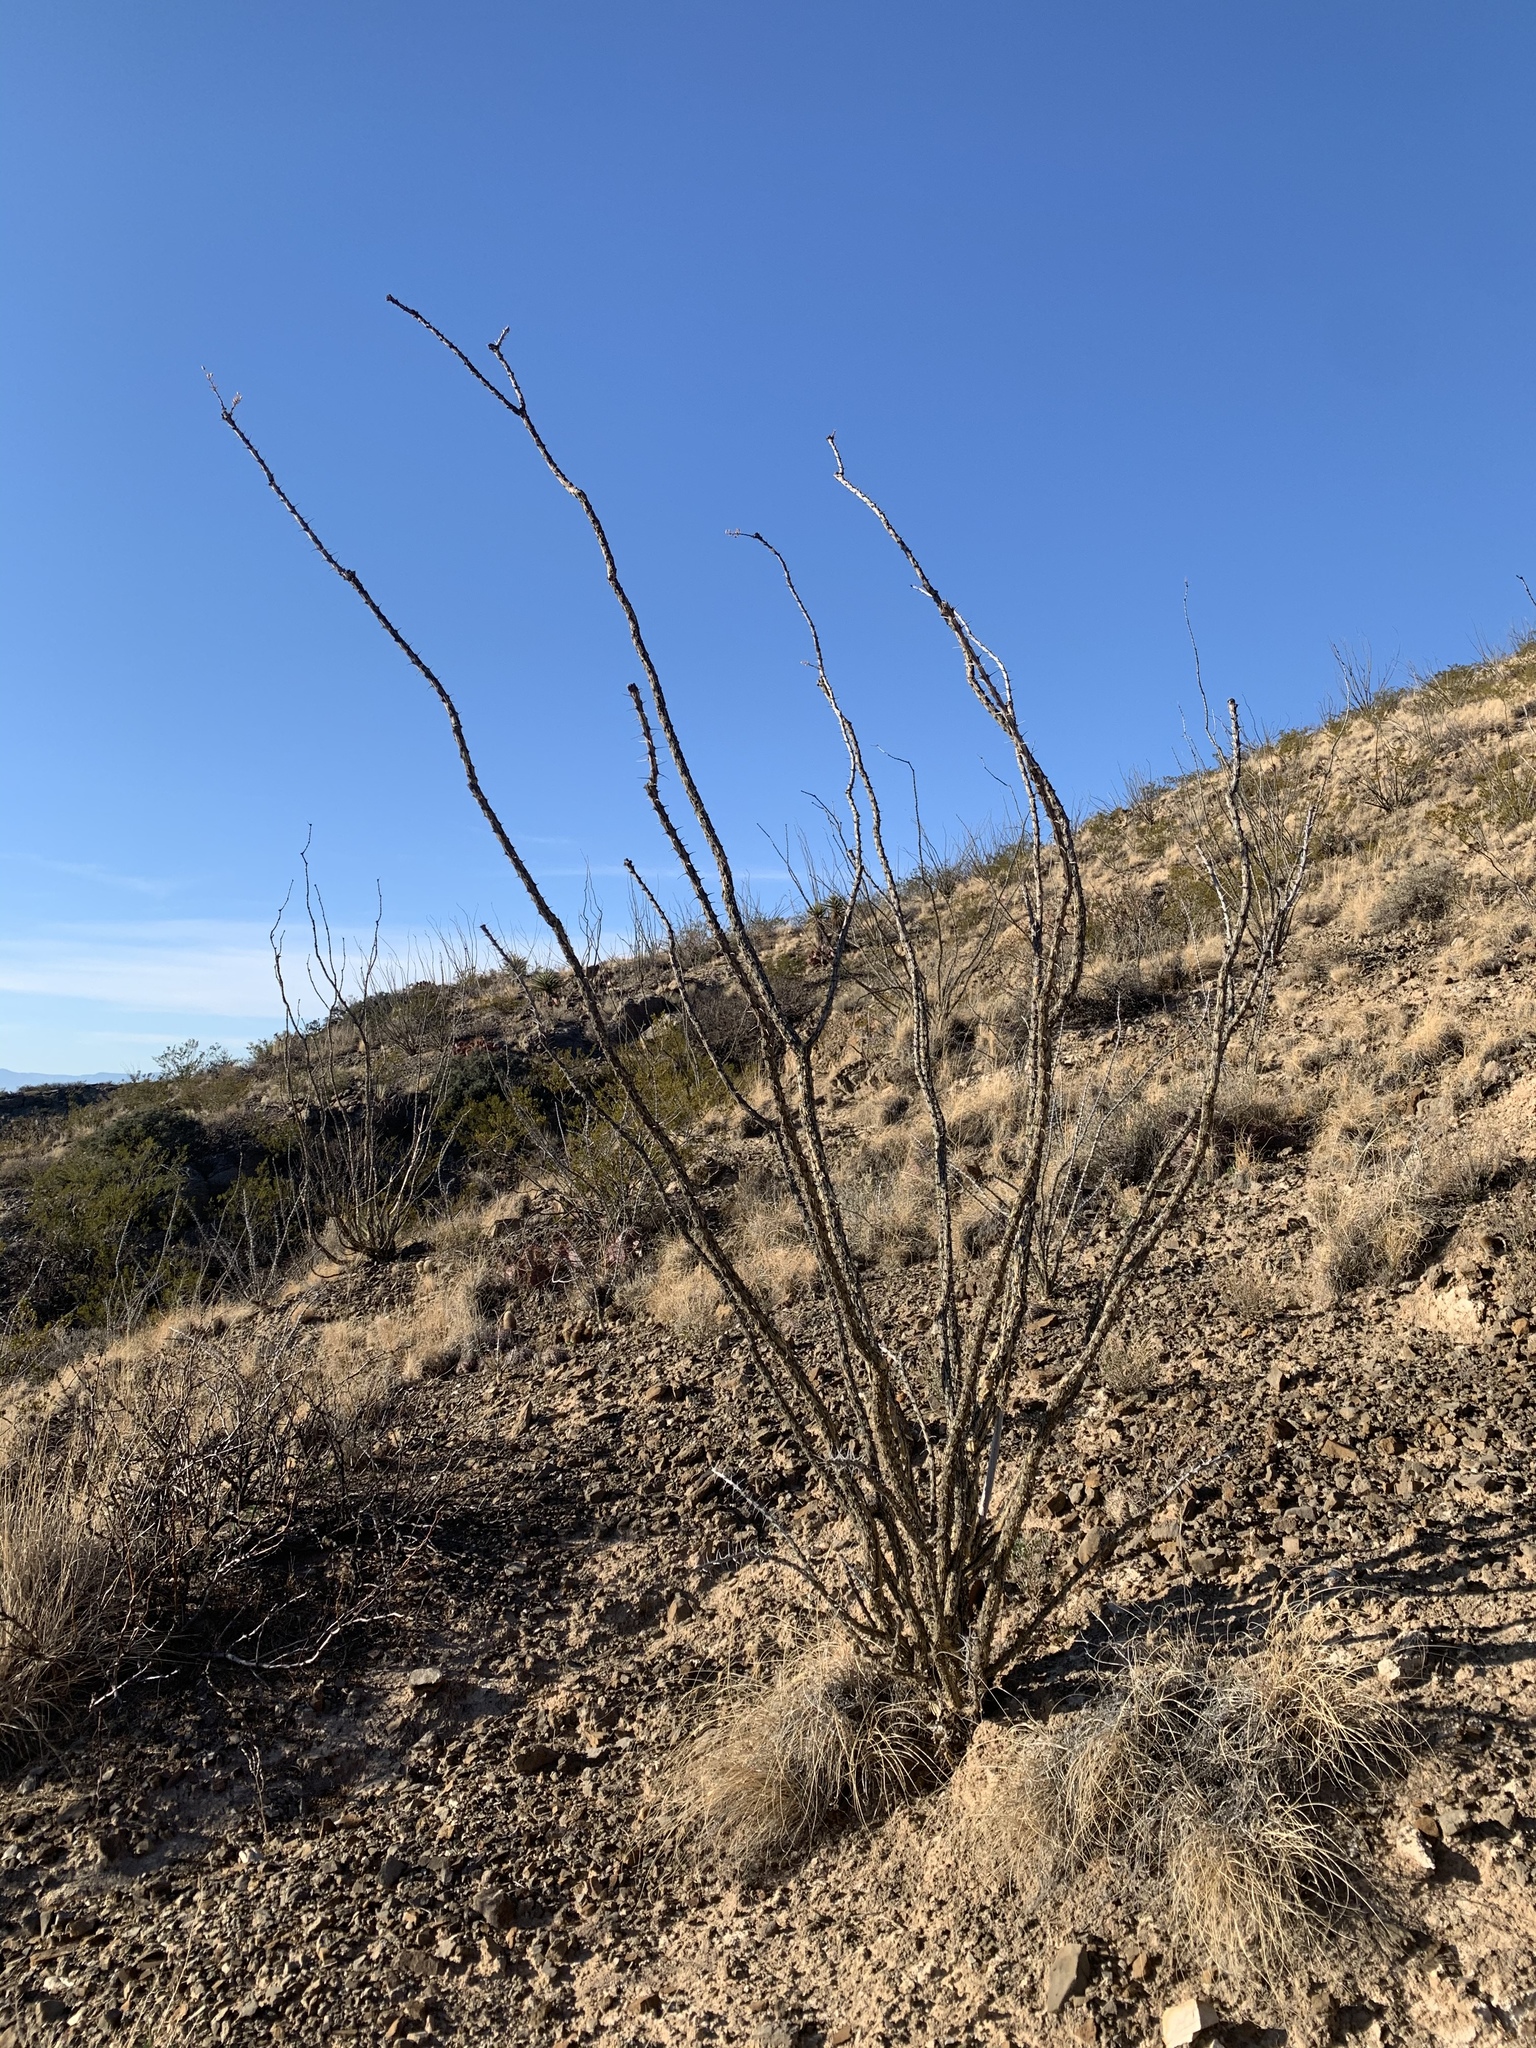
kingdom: Plantae
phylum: Tracheophyta
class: Magnoliopsida
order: Ericales
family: Fouquieriaceae
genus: Fouquieria
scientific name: Fouquieria splendens
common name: Vine-cactus
